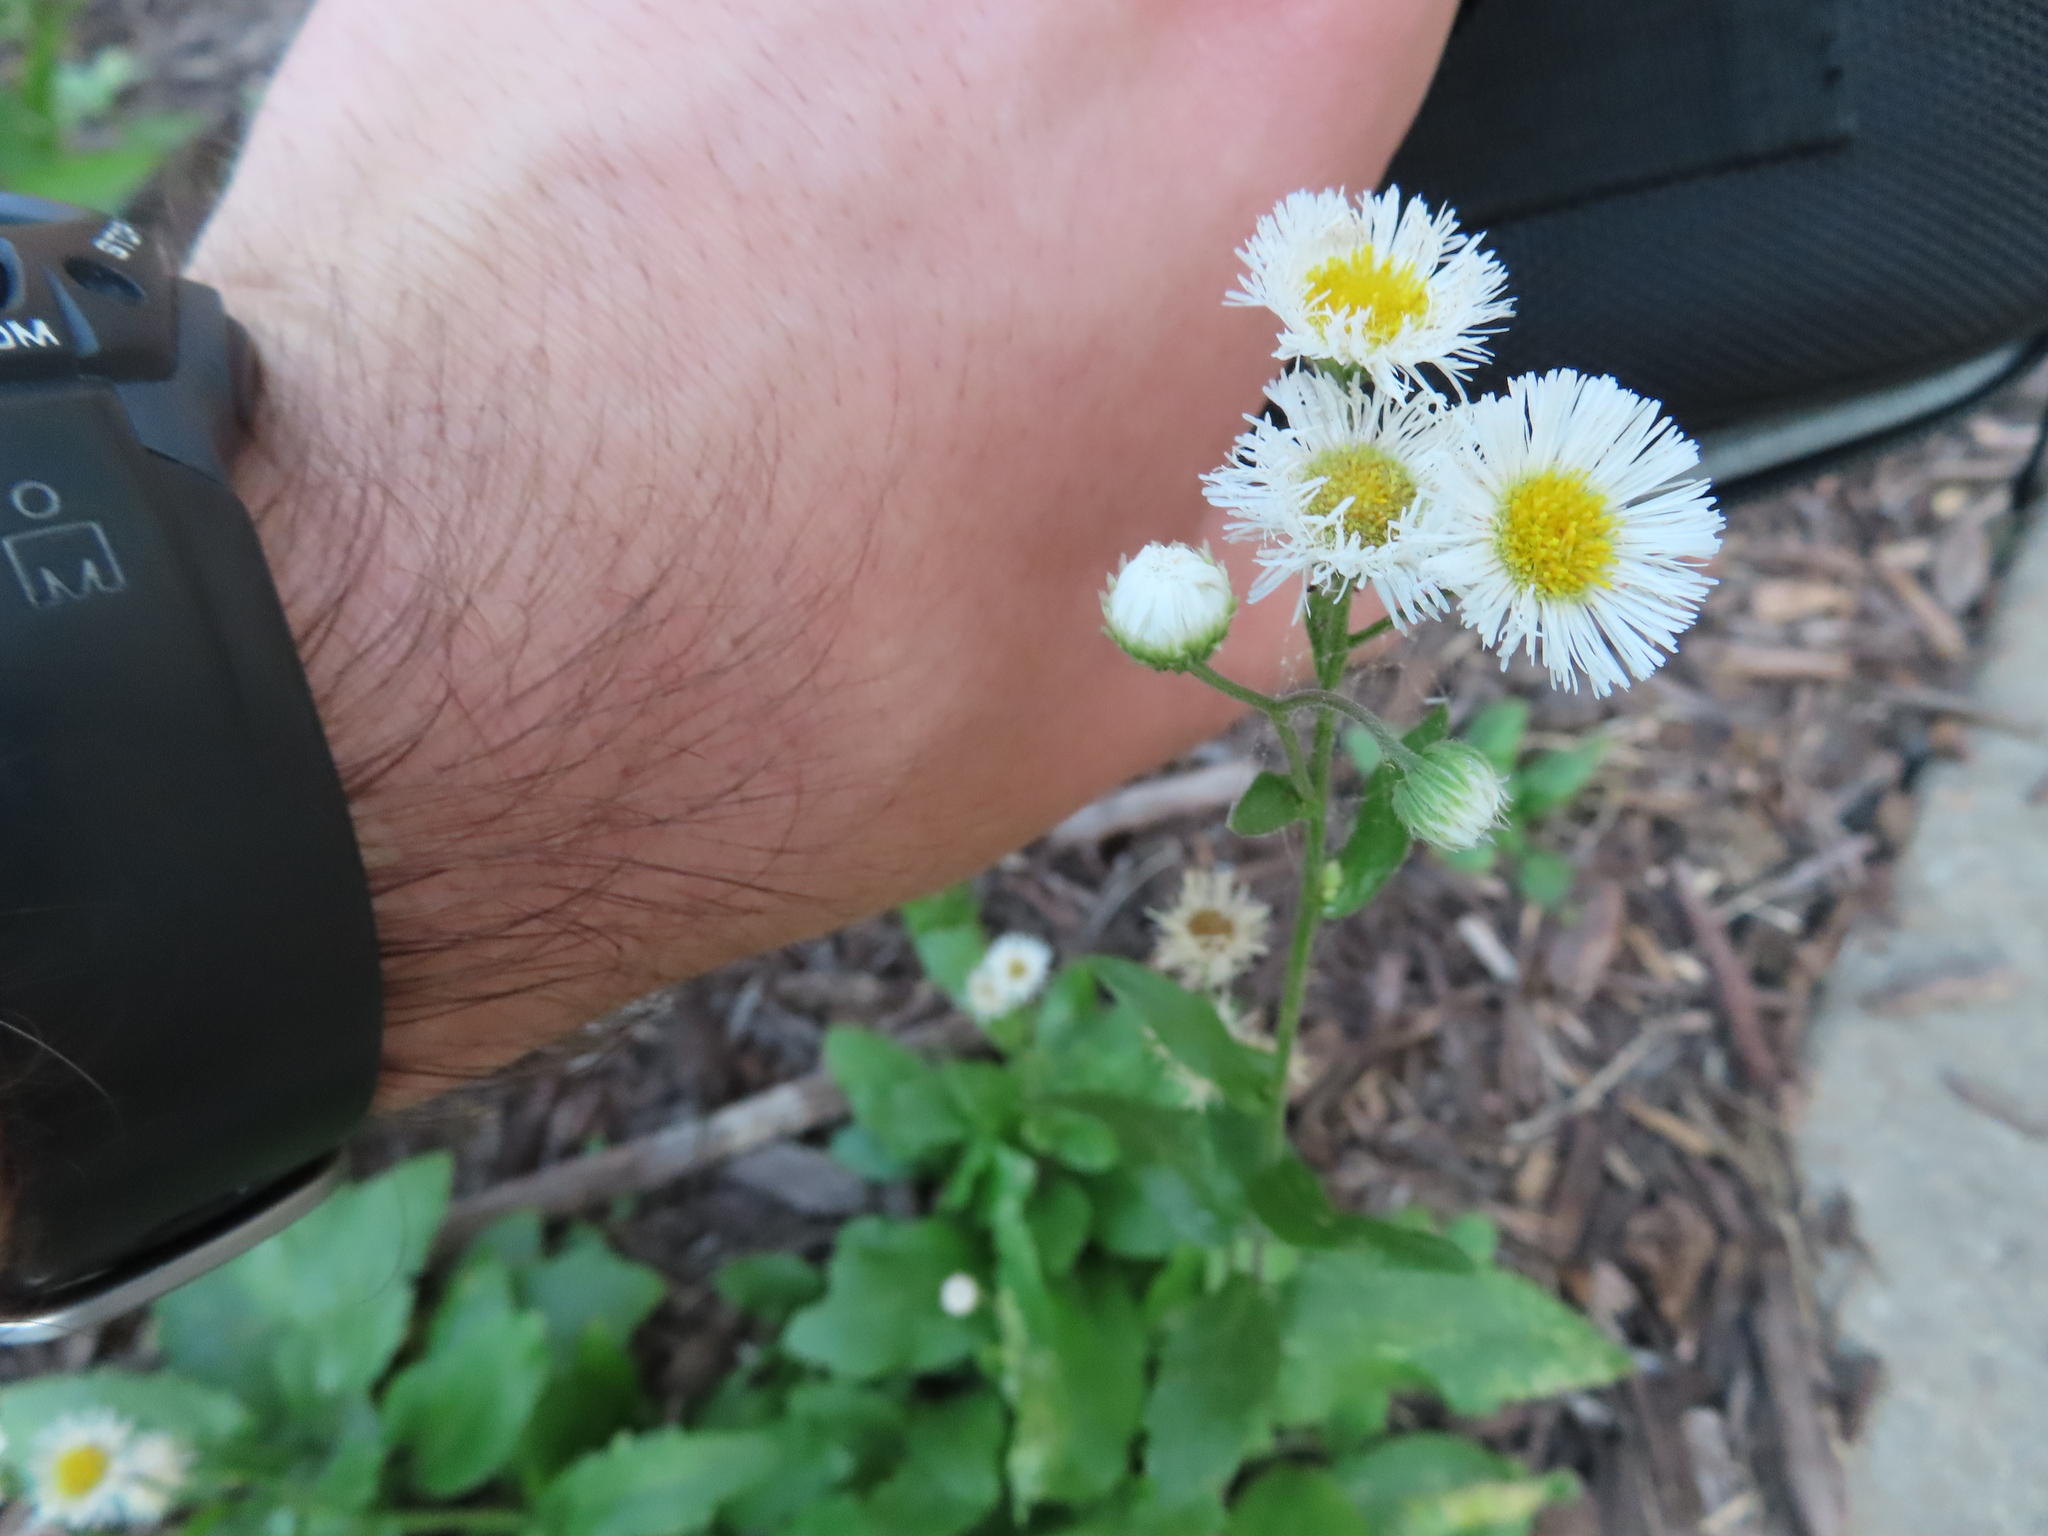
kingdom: Plantae
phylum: Tracheophyta
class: Magnoliopsida
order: Asterales
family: Asteraceae
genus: Erigeron
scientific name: Erigeron philadelphicus
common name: Robin's-plantain
